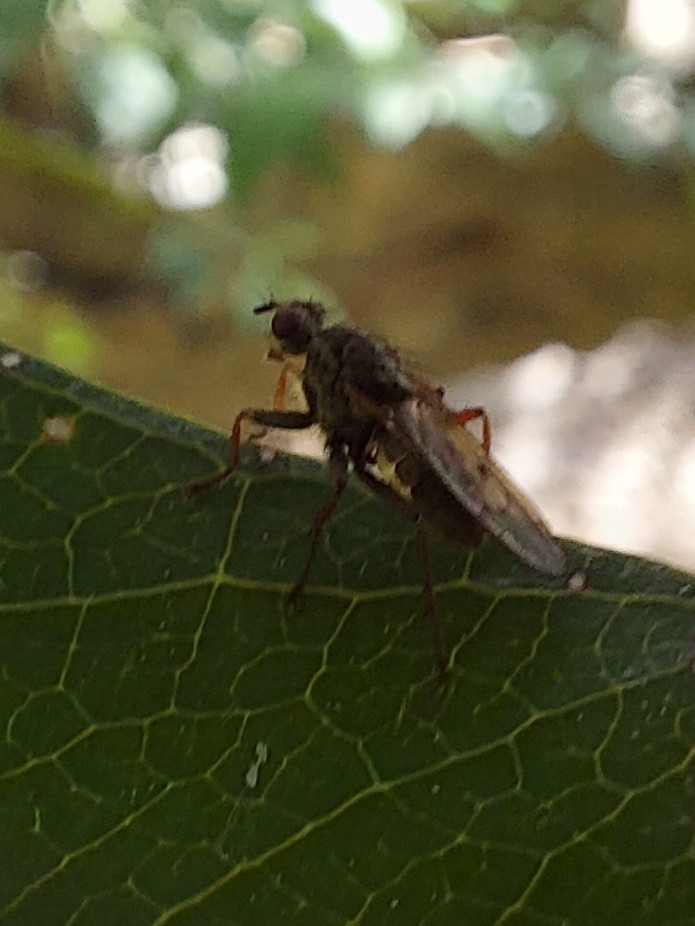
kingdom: Animalia
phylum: Arthropoda
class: Insecta
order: Diptera
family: Scathophagidae
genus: Scathophaga
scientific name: Scathophaga soror
